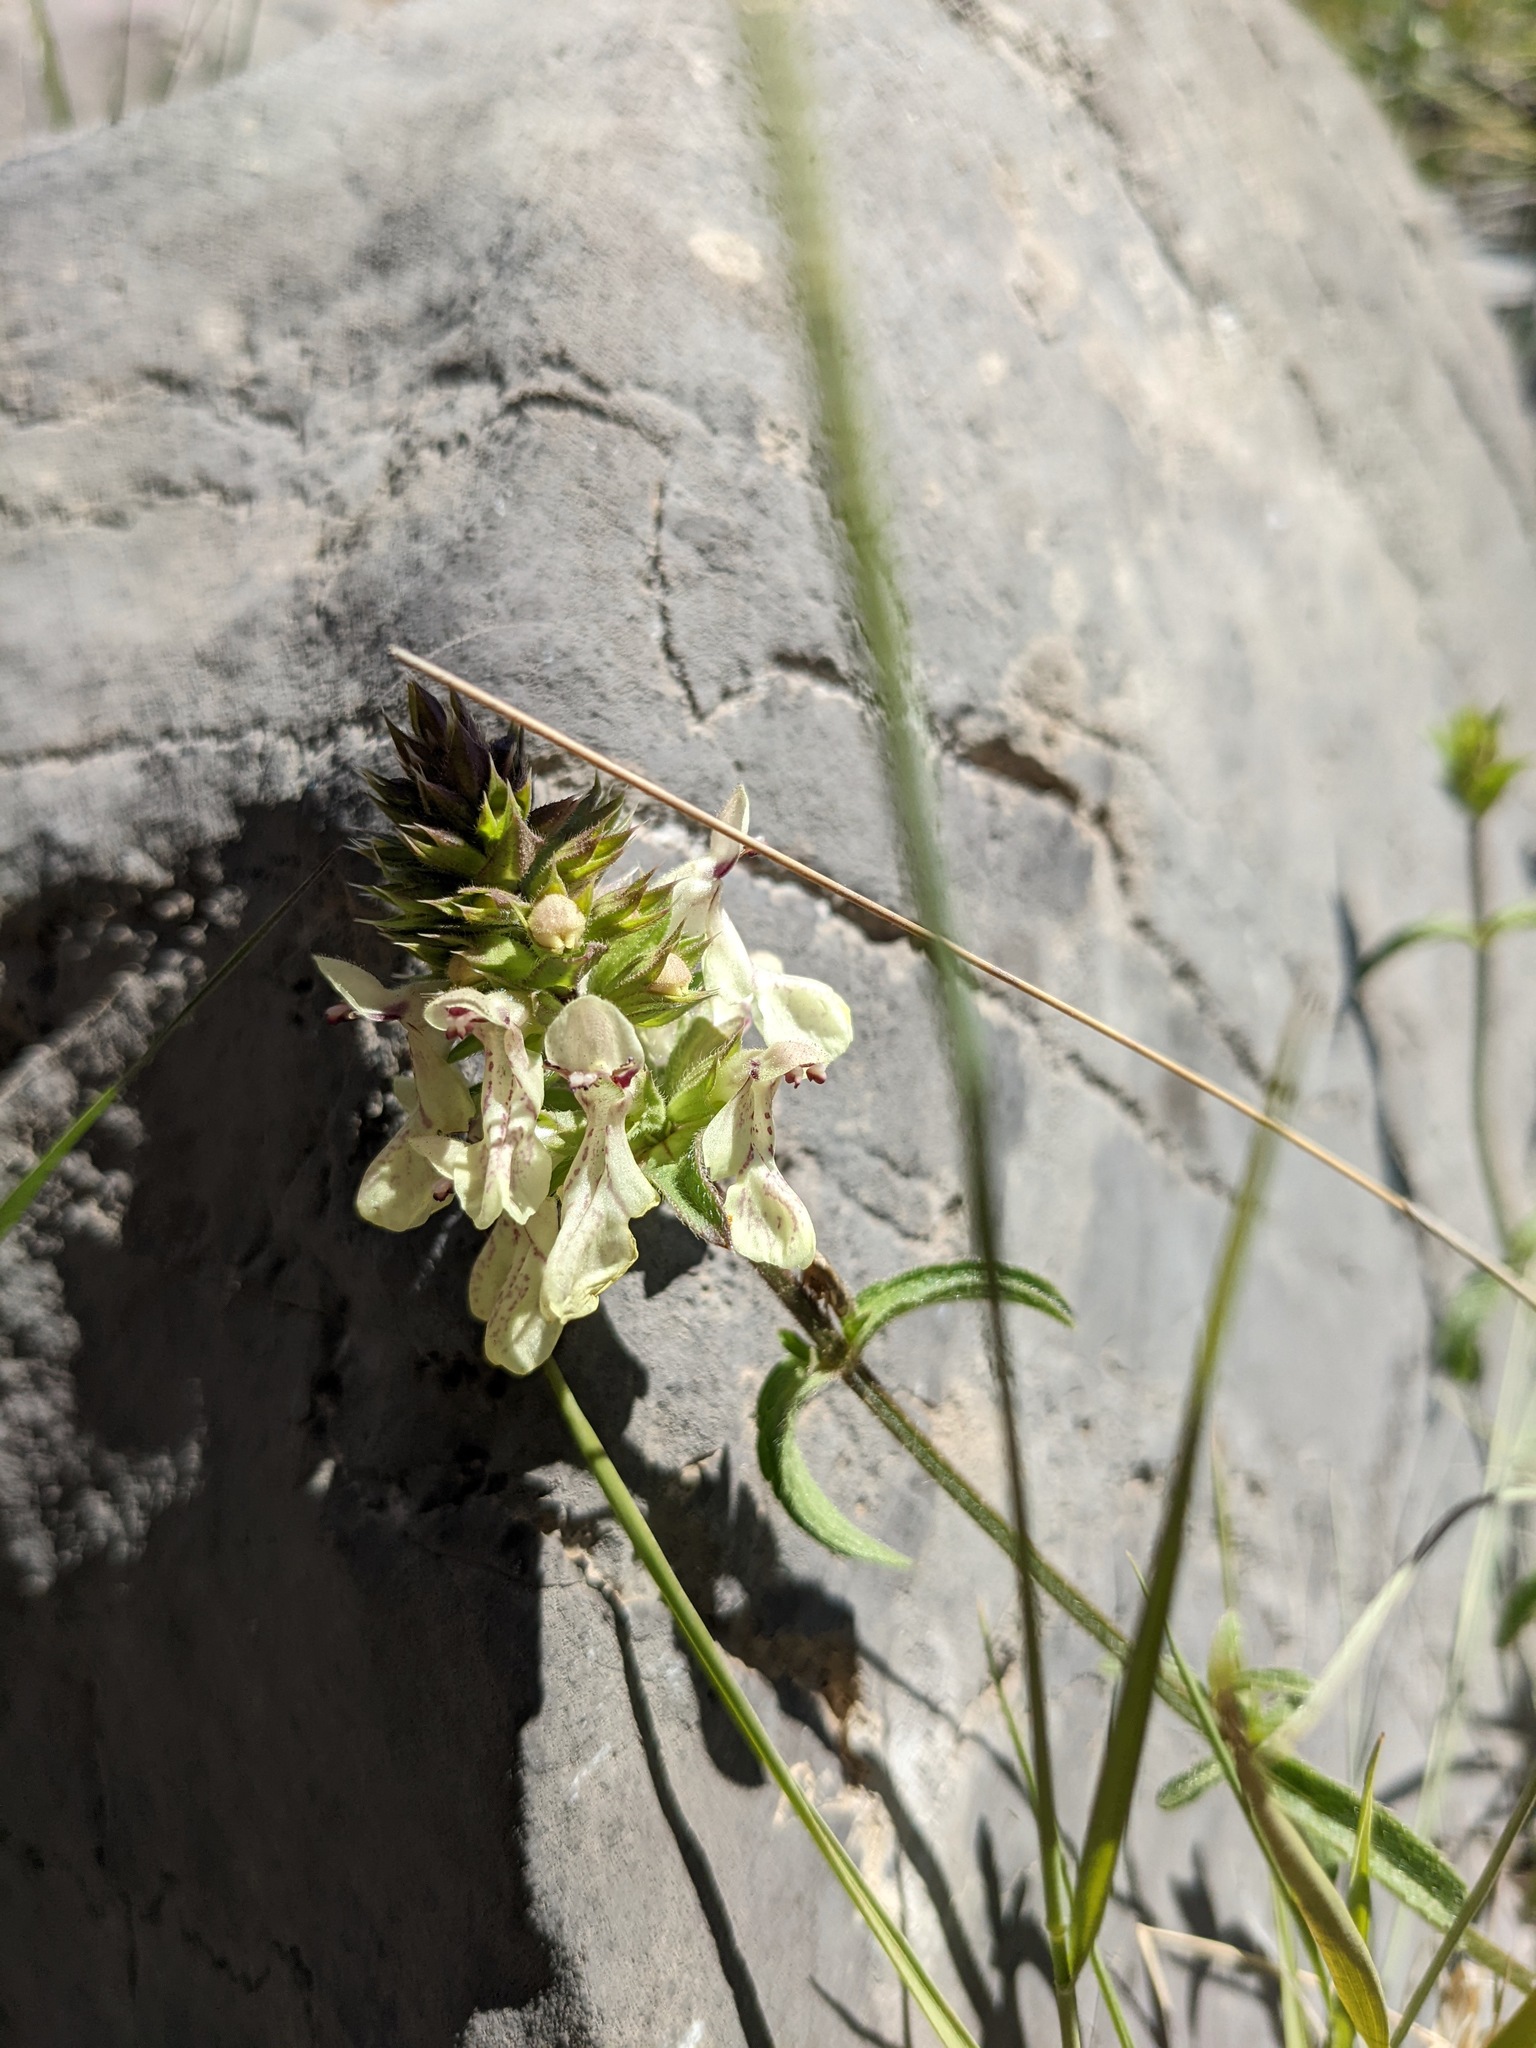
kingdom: Plantae
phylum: Tracheophyta
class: Magnoliopsida
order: Lamiales
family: Lamiaceae
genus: Stachys
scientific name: Stachys recta
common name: Perennial yellow-woundwort
